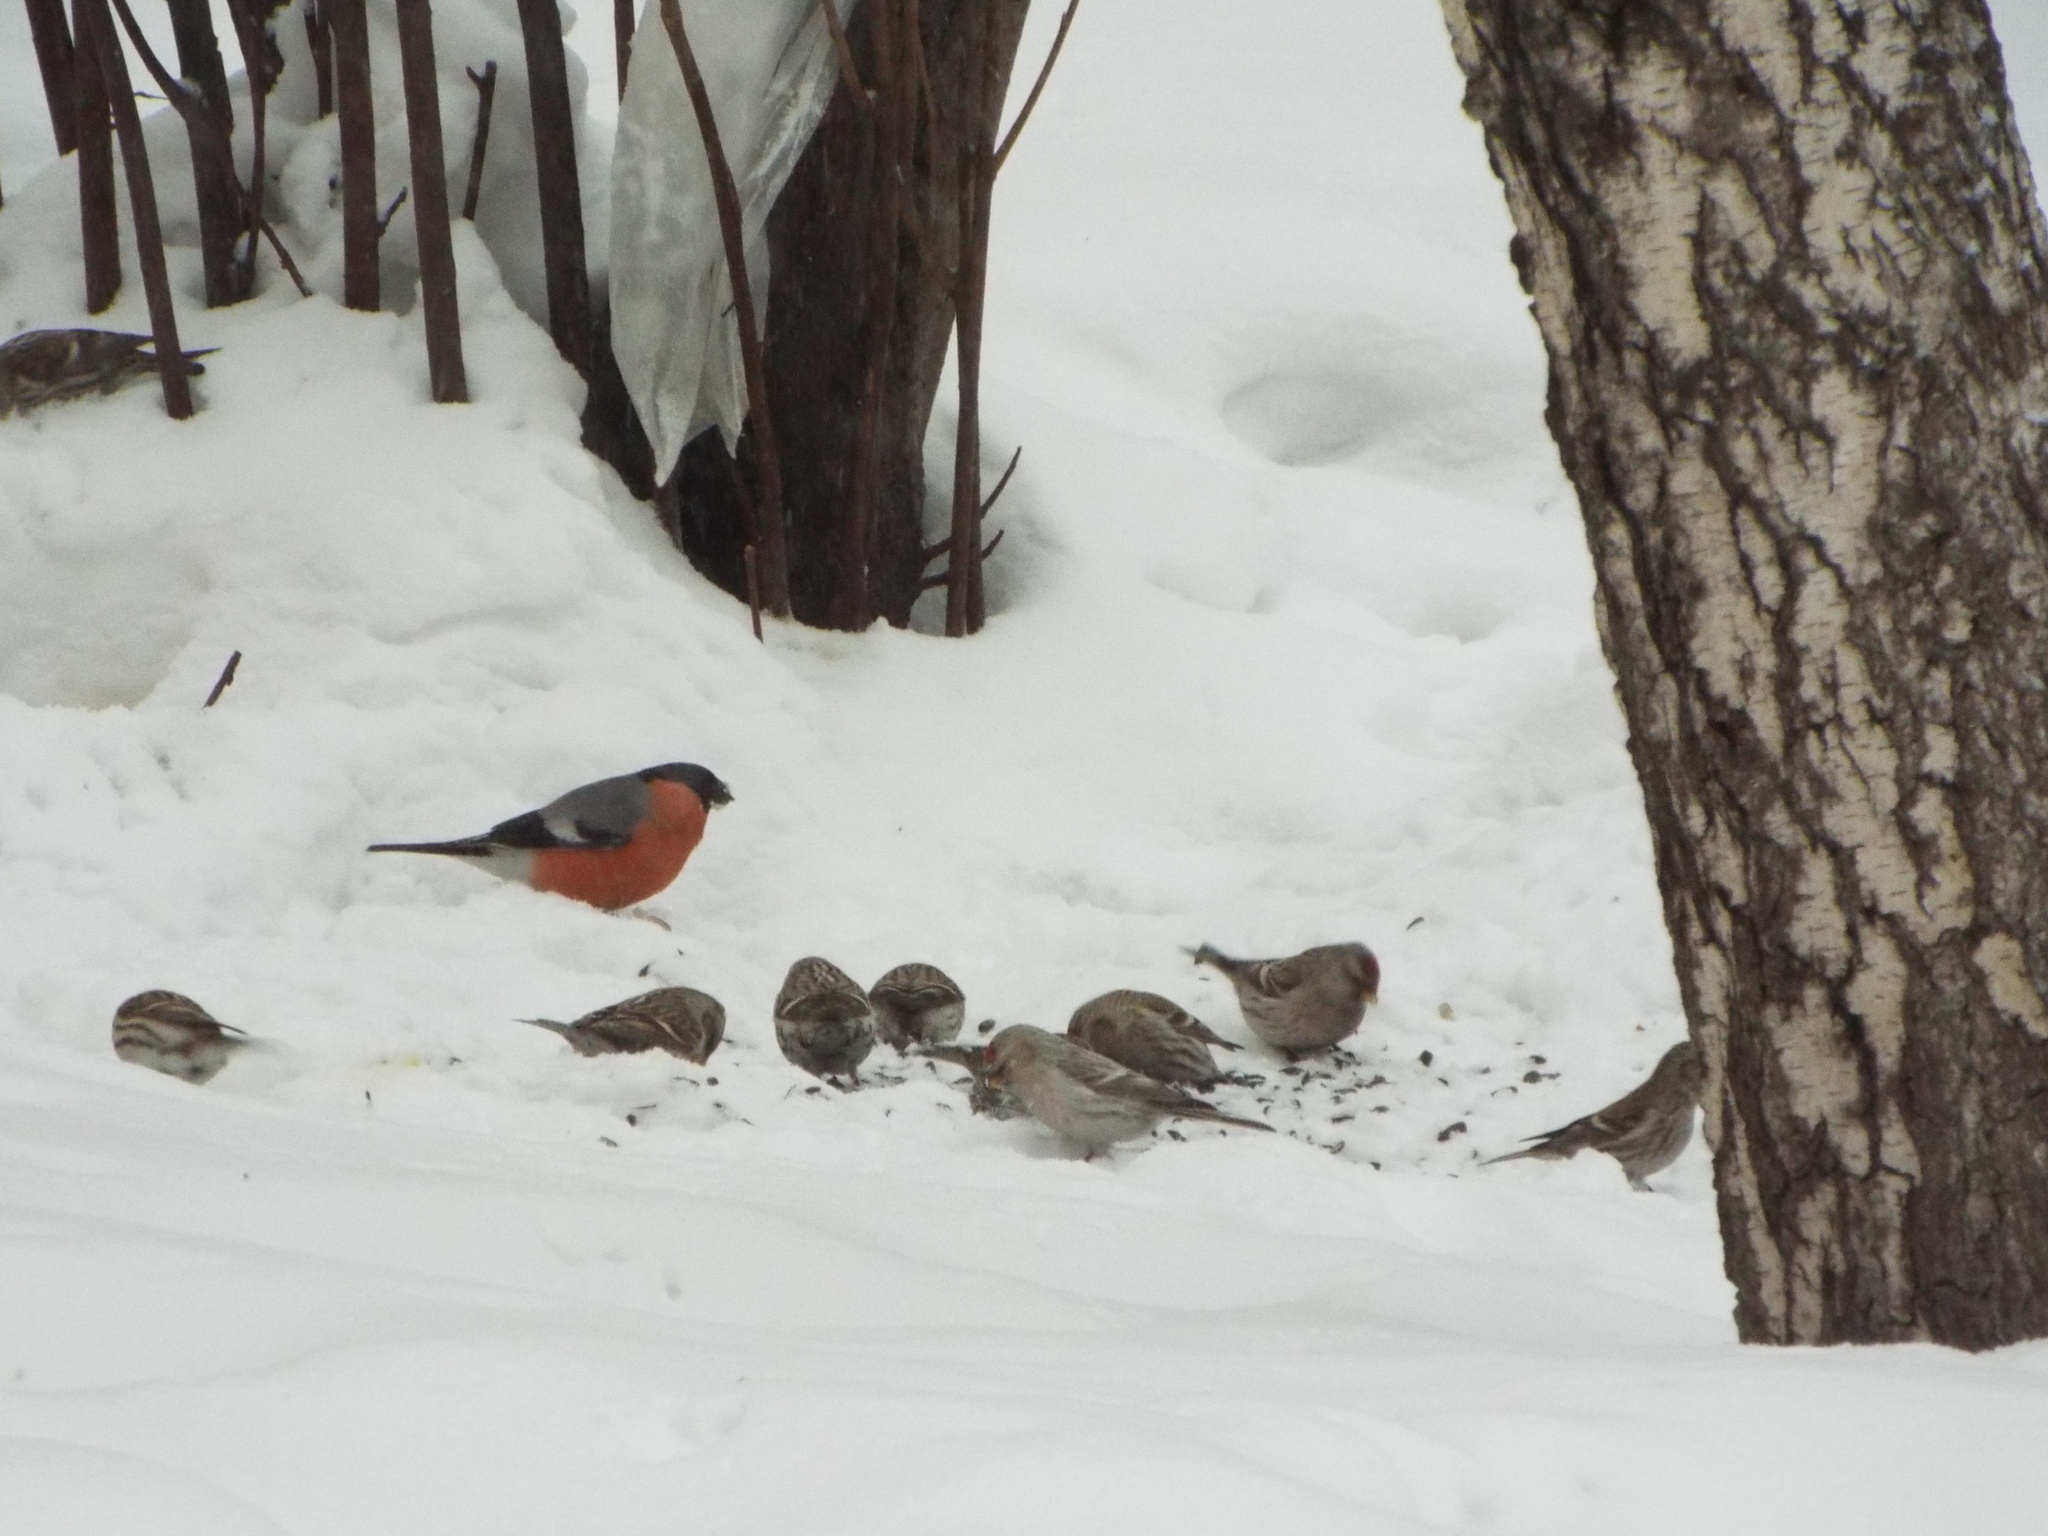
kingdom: Animalia
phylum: Chordata
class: Aves
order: Passeriformes
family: Fringillidae
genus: Acanthis
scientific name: Acanthis flammea
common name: Common redpoll
